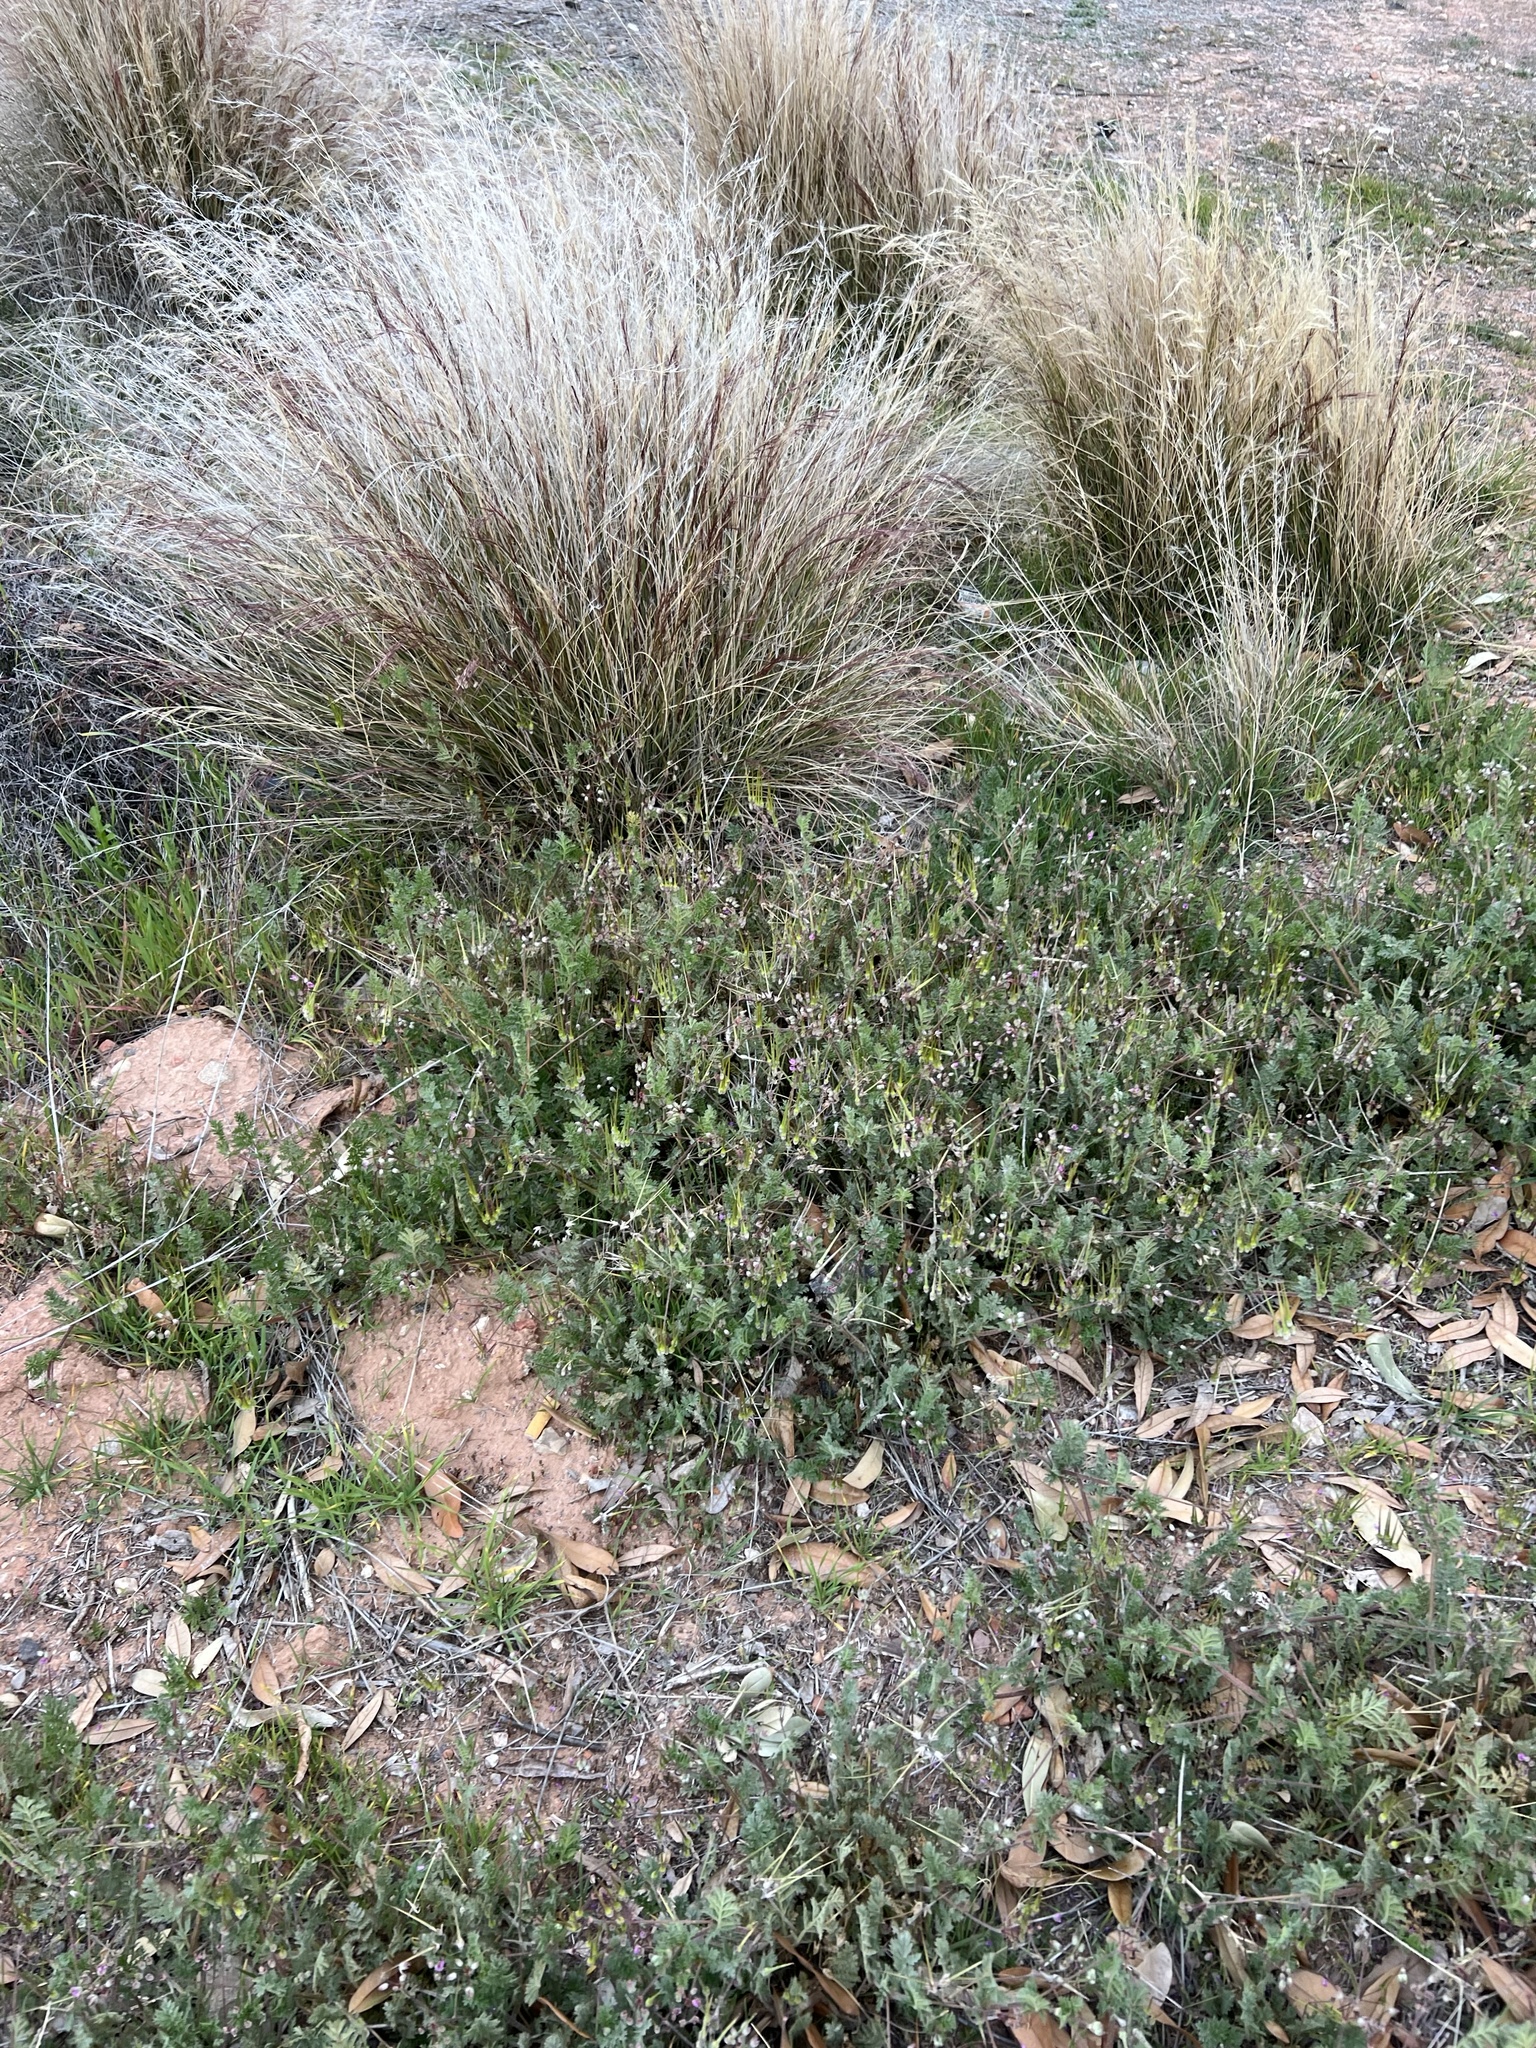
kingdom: Plantae
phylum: Tracheophyta
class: Magnoliopsida
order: Geraniales
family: Geraniaceae
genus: Erodium
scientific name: Erodium cicutarium
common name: Common stork's-bill
